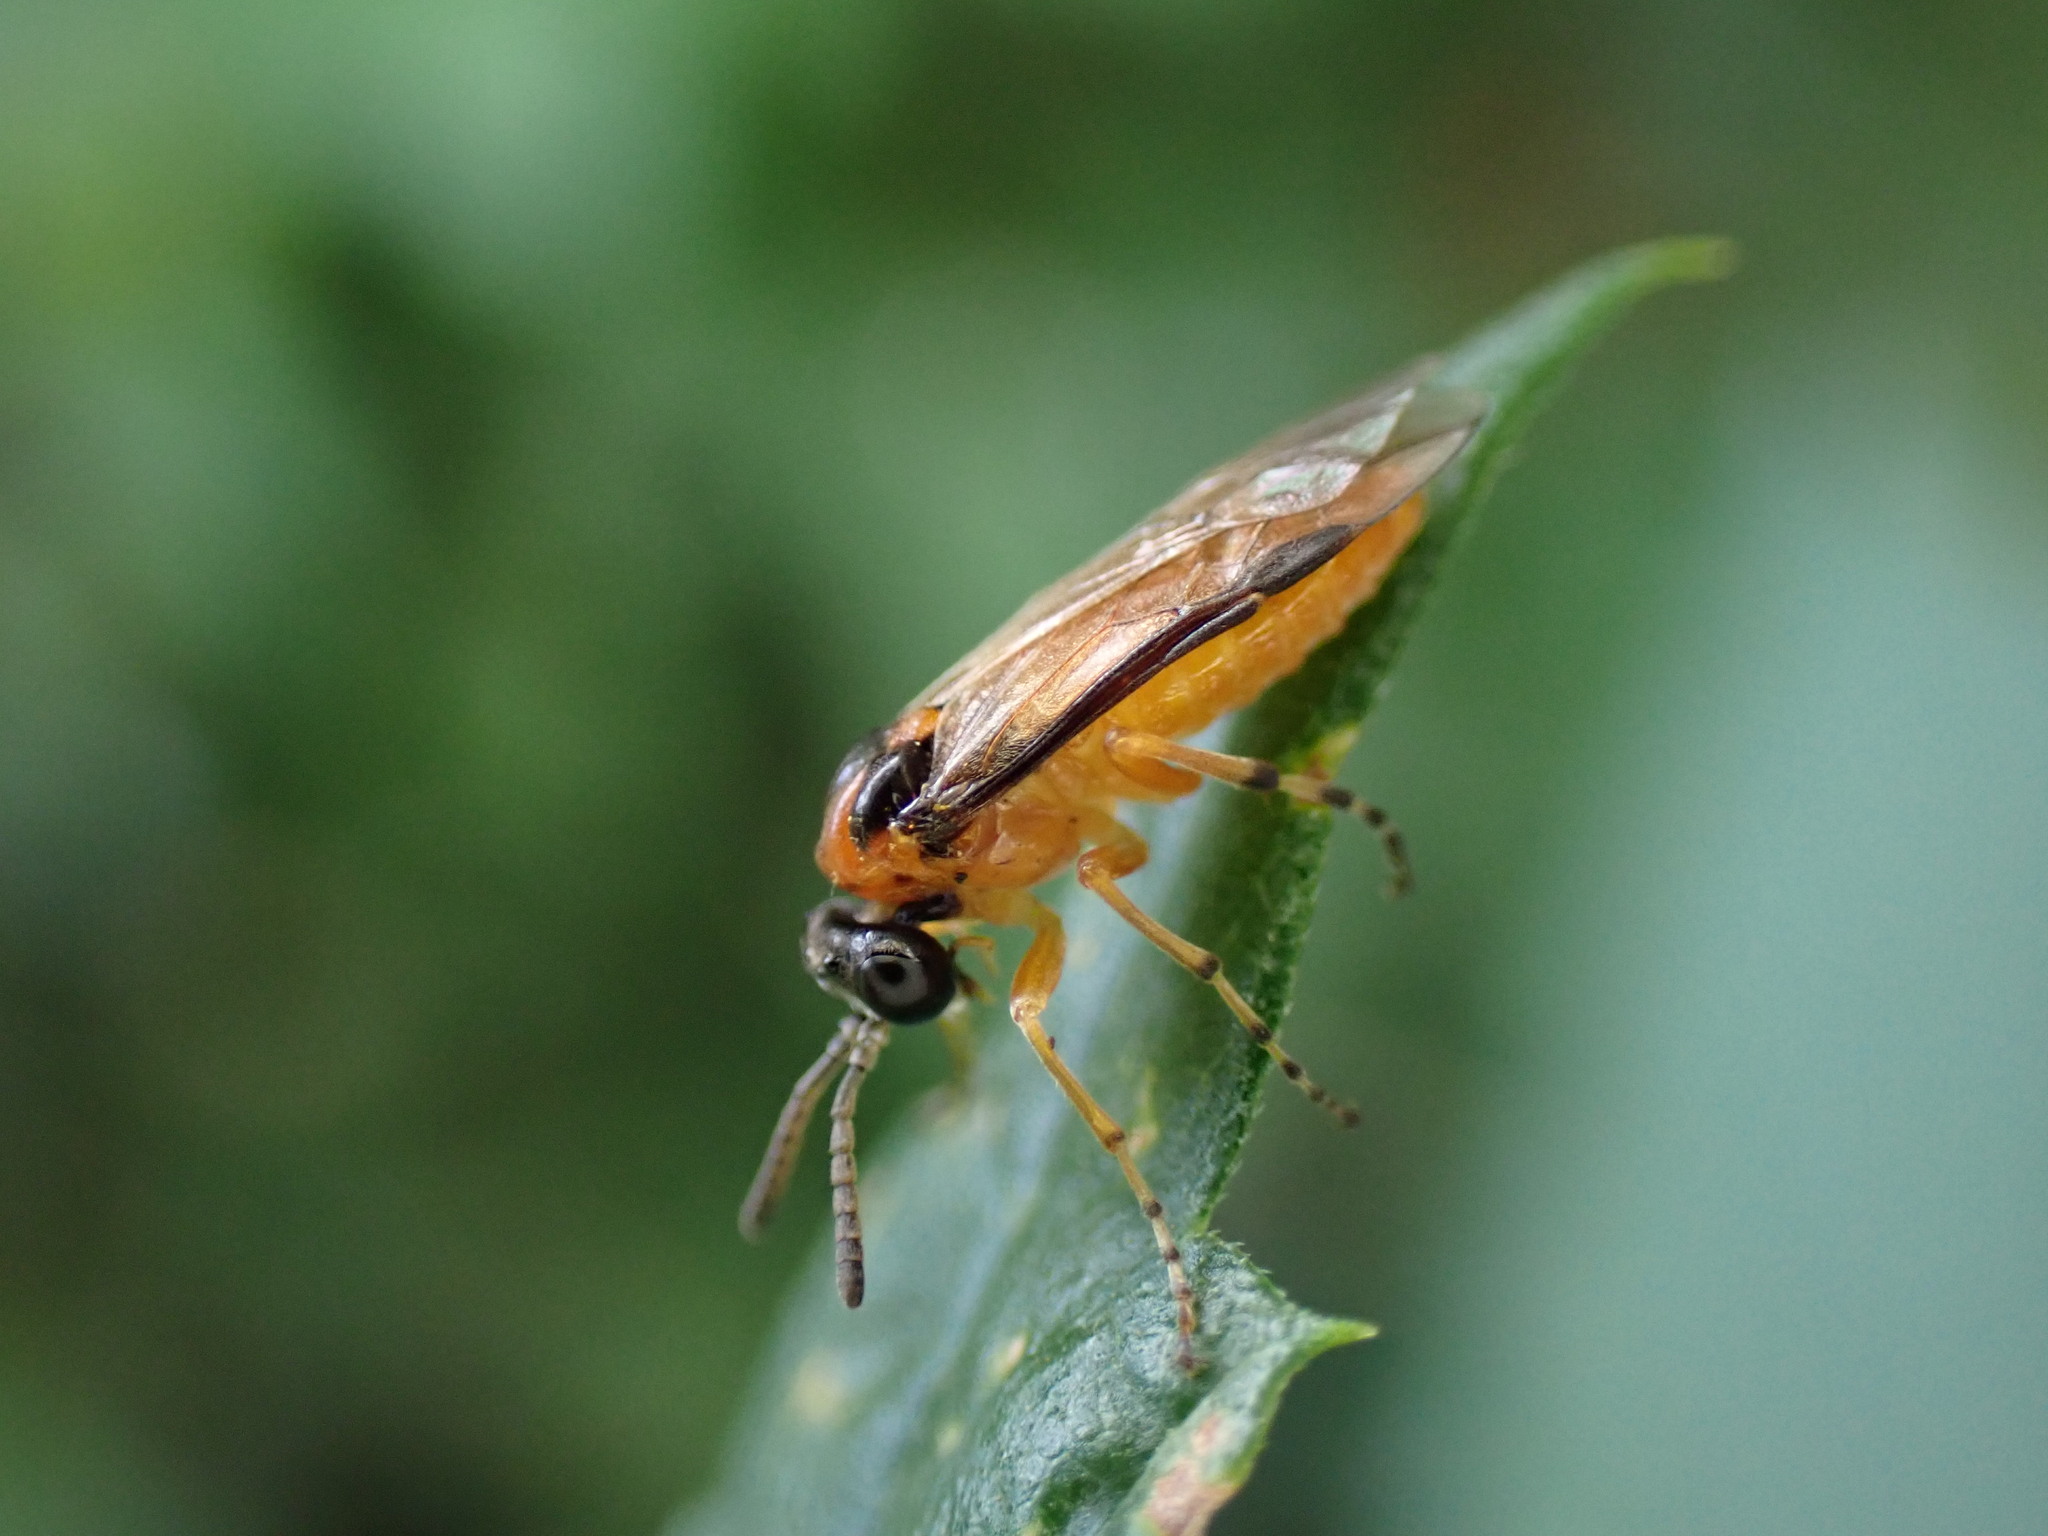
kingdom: Animalia
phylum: Arthropoda
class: Insecta
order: Hymenoptera
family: Tenthredinidae
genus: Athalia
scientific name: Athalia rosae
